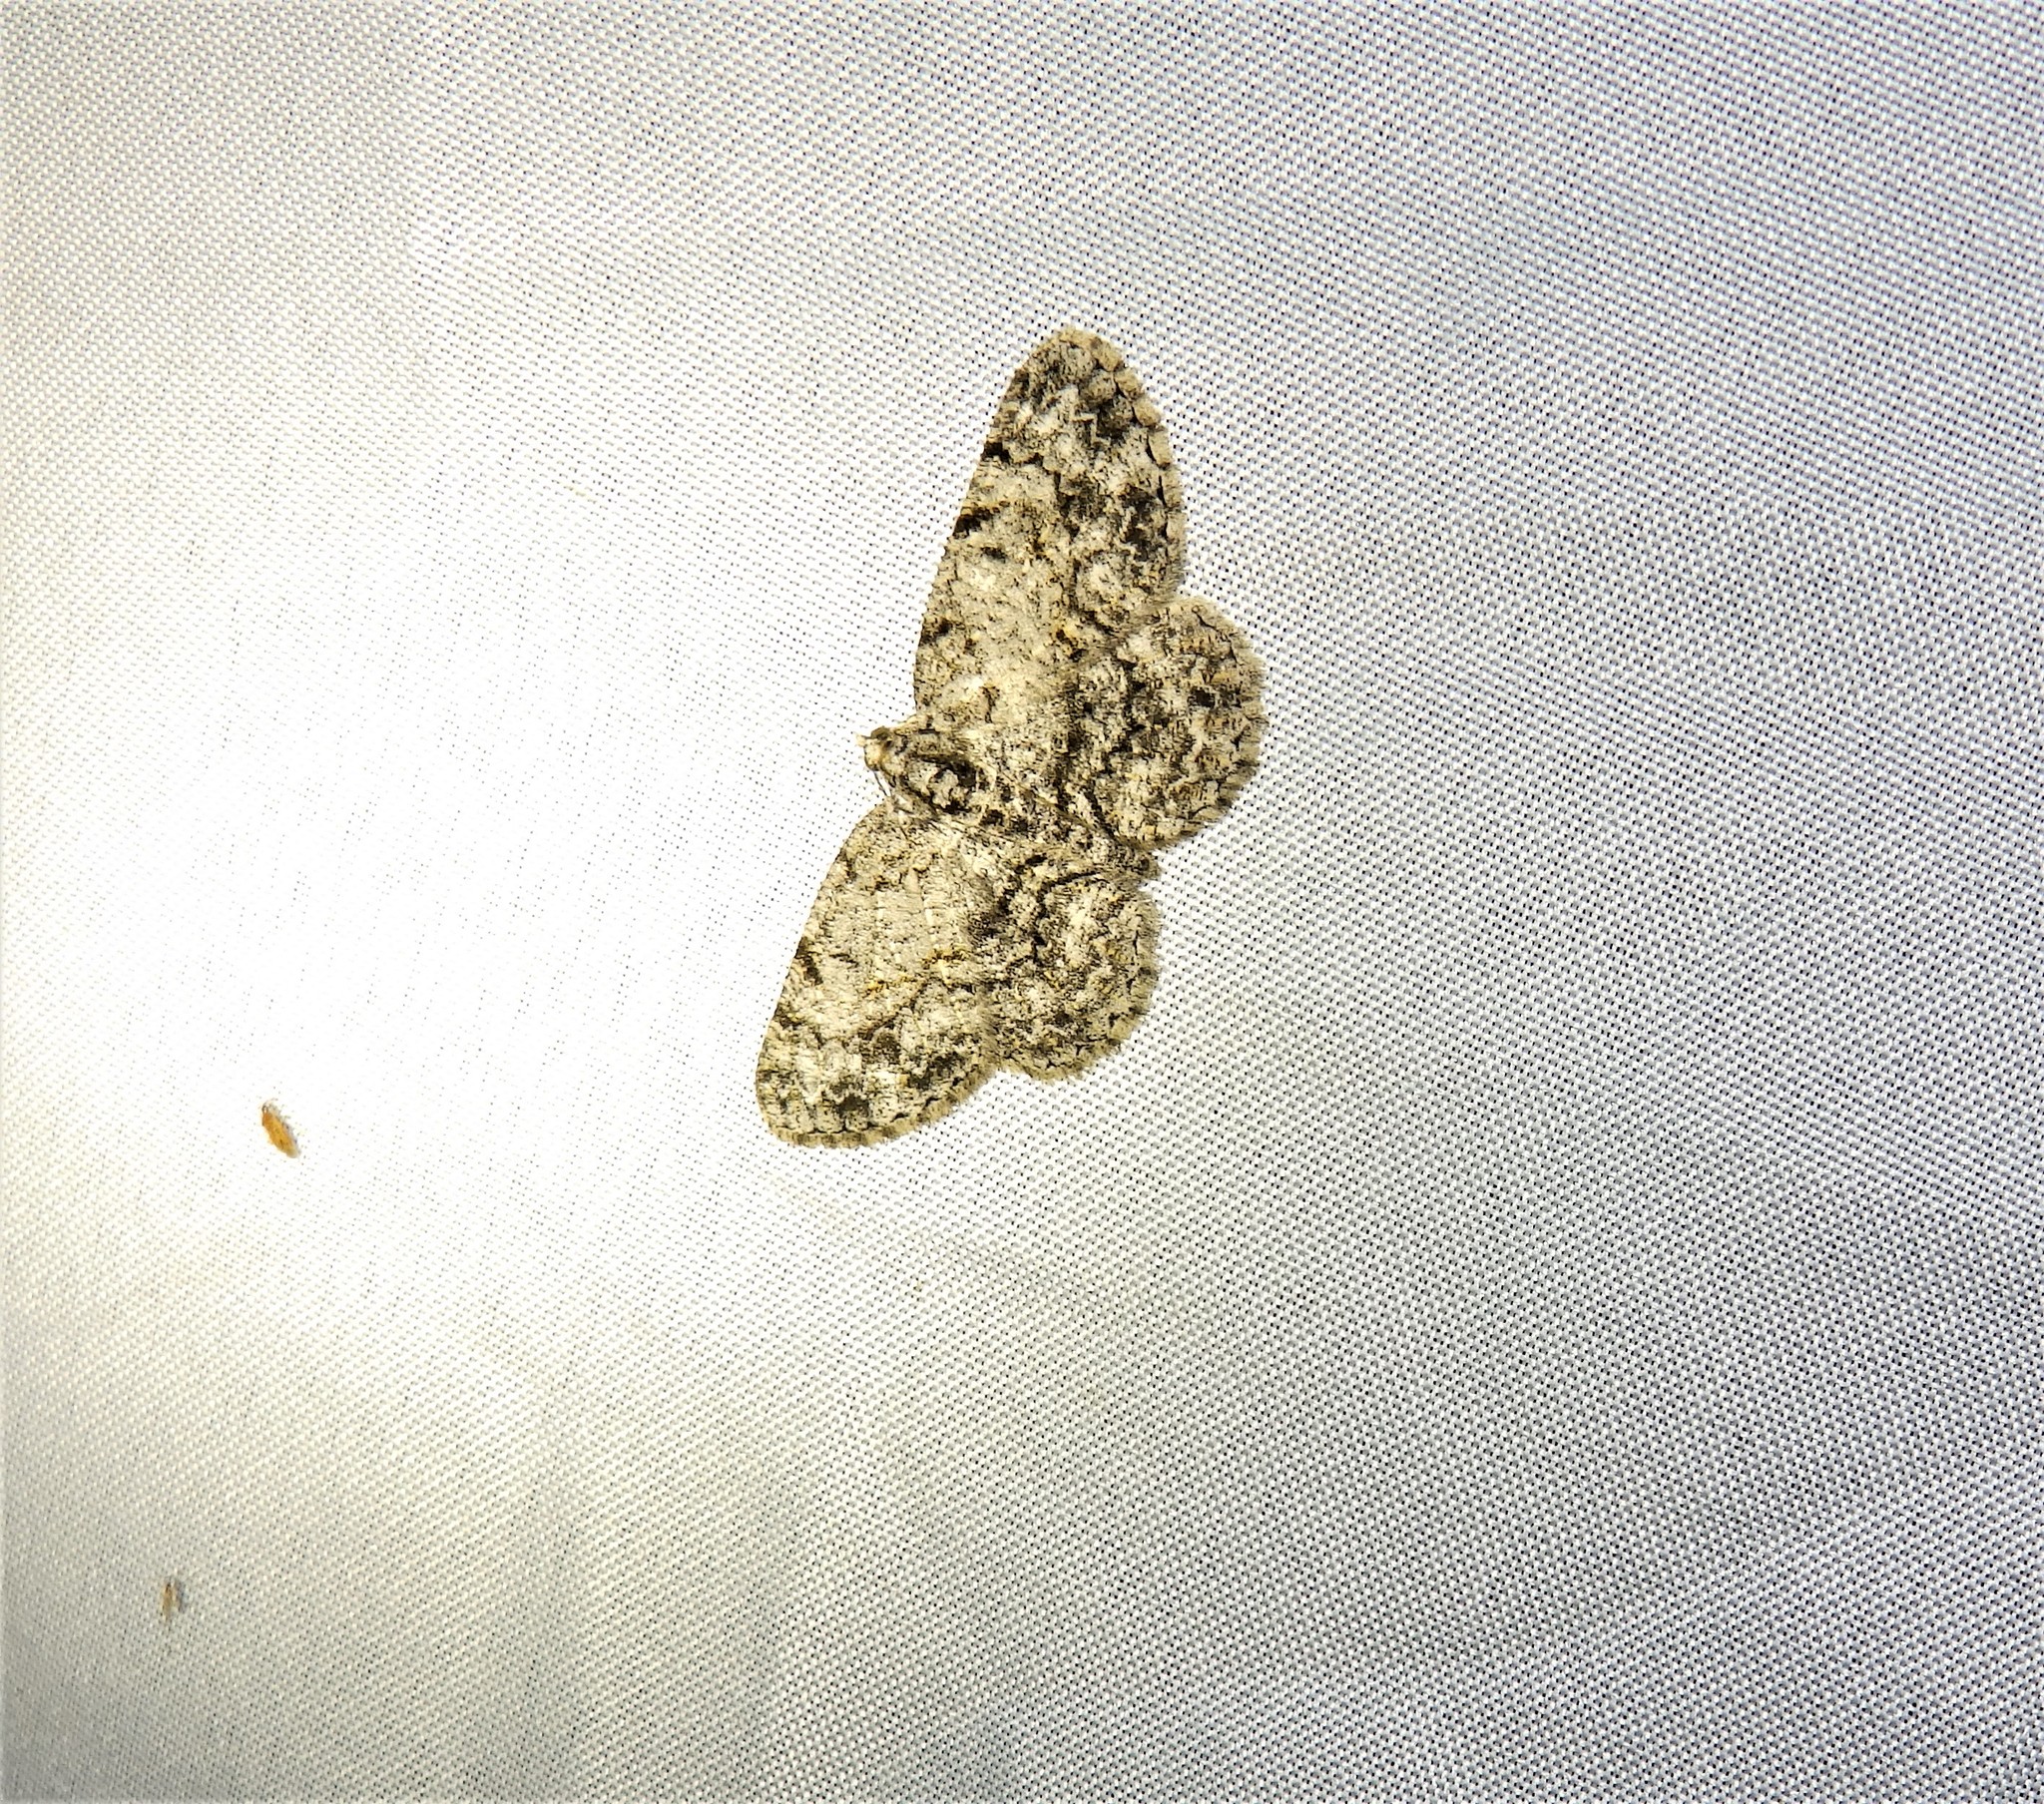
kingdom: Animalia
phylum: Arthropoda
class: Insecta
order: Lepidoptera
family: Geometridae
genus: Protoboarmia
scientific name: Protoboarmia porcelaria
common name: Porcelain gray
